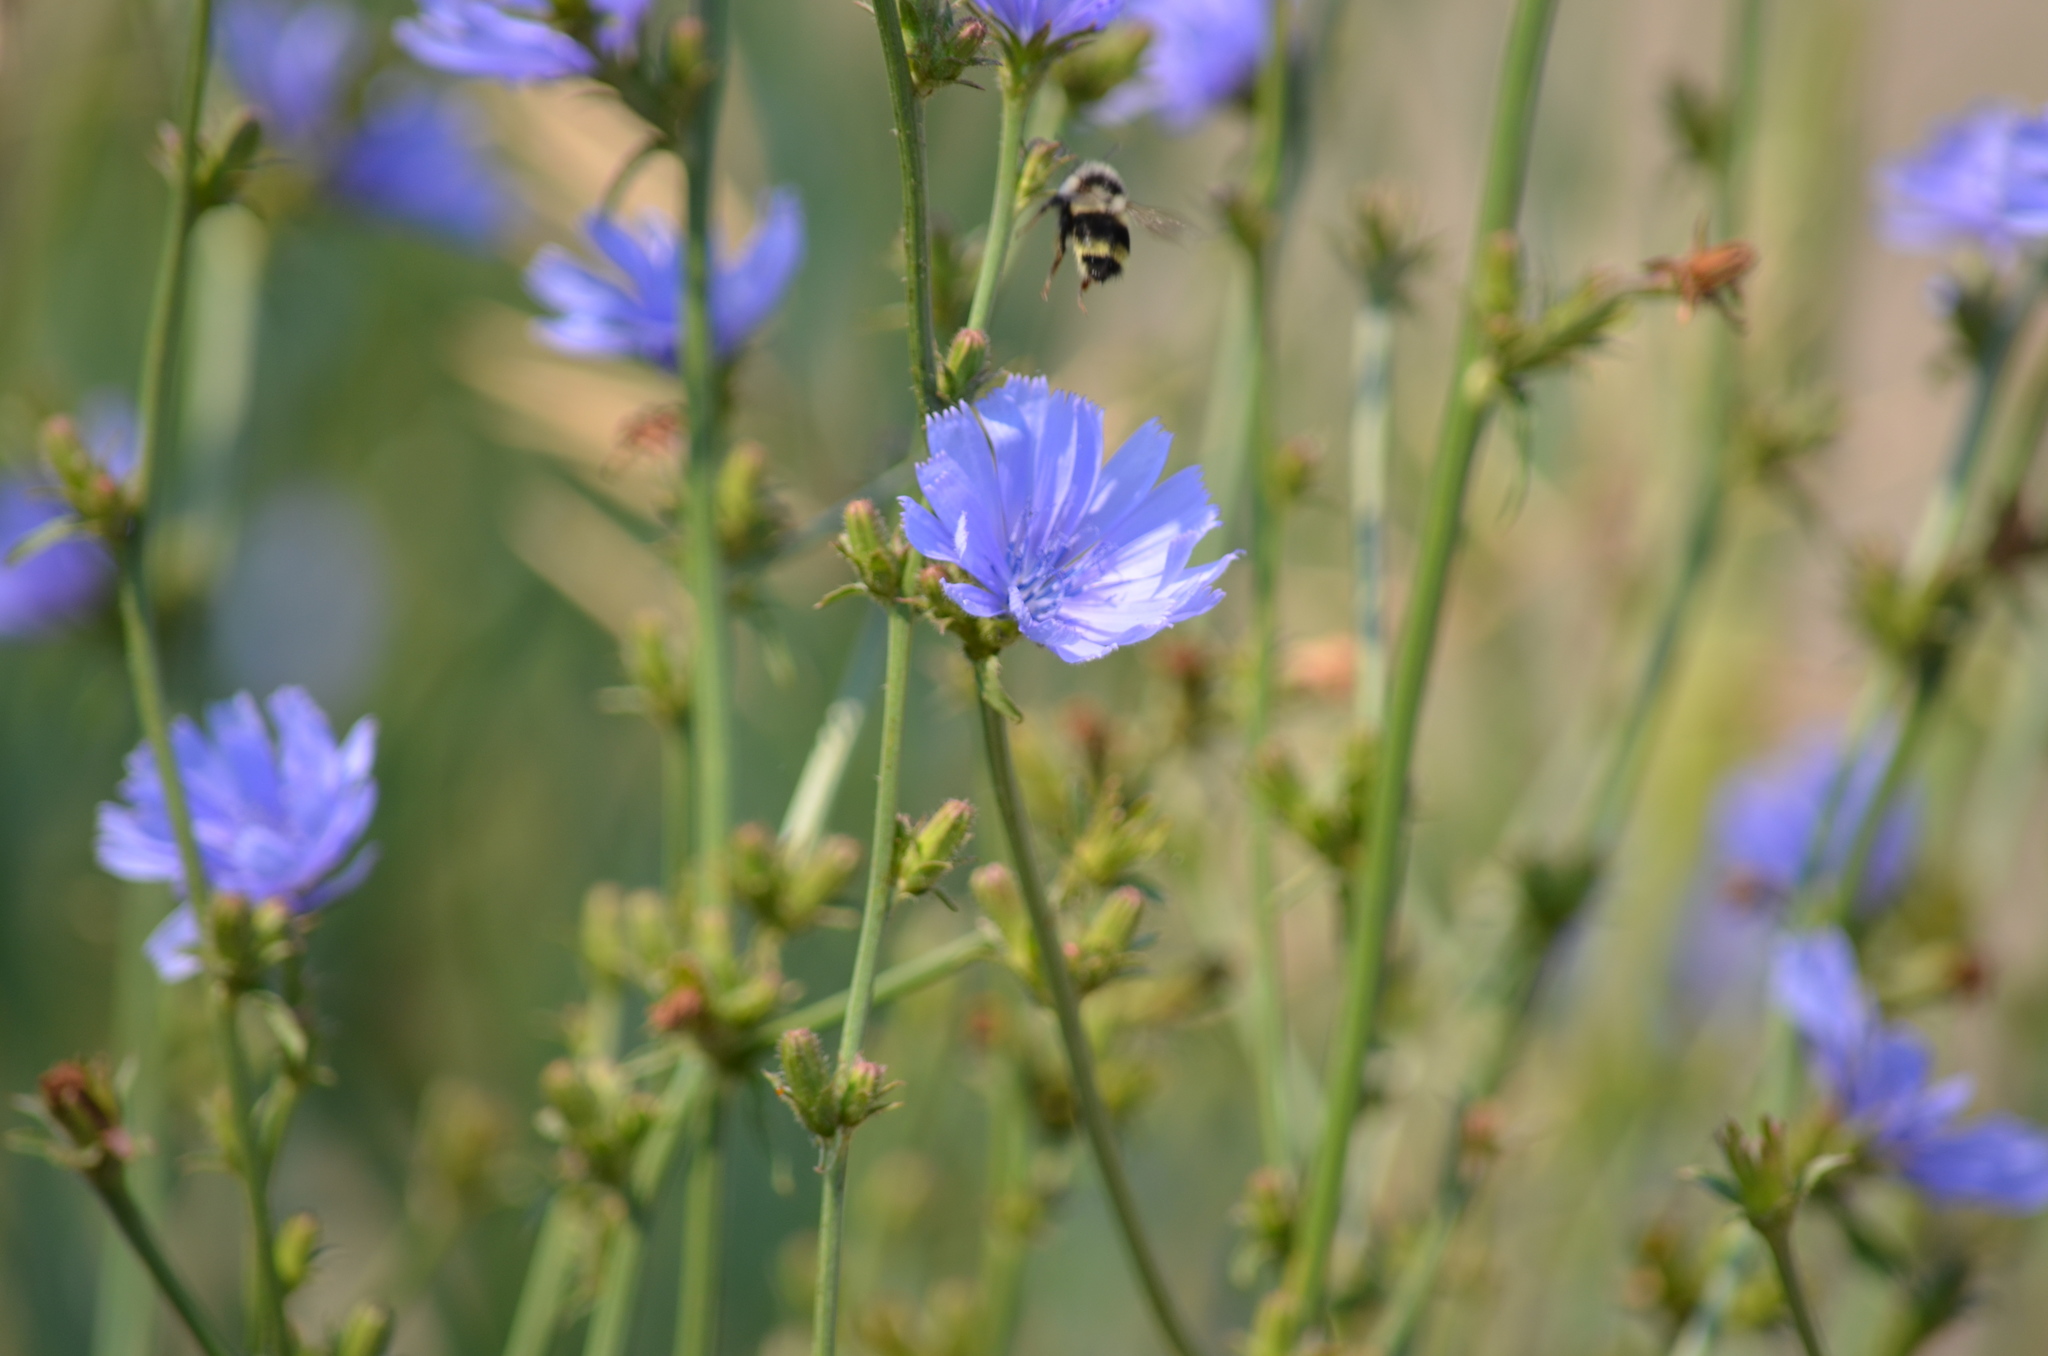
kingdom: Animalia
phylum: Arthropoda
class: Insecta
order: Hymenoptera
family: Apidae
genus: Bombus
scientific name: Bombus vancouverensis
